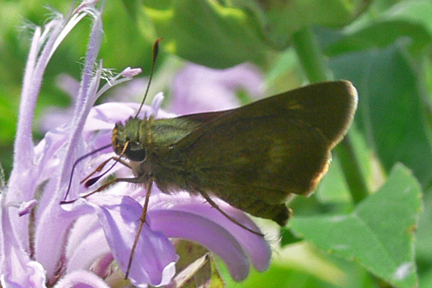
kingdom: Animalia
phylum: Arthropoda
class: Insecta
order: Lepidoptera
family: Hesperiidae
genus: Polites
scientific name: Polites egeremet
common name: Northern broken-dash
